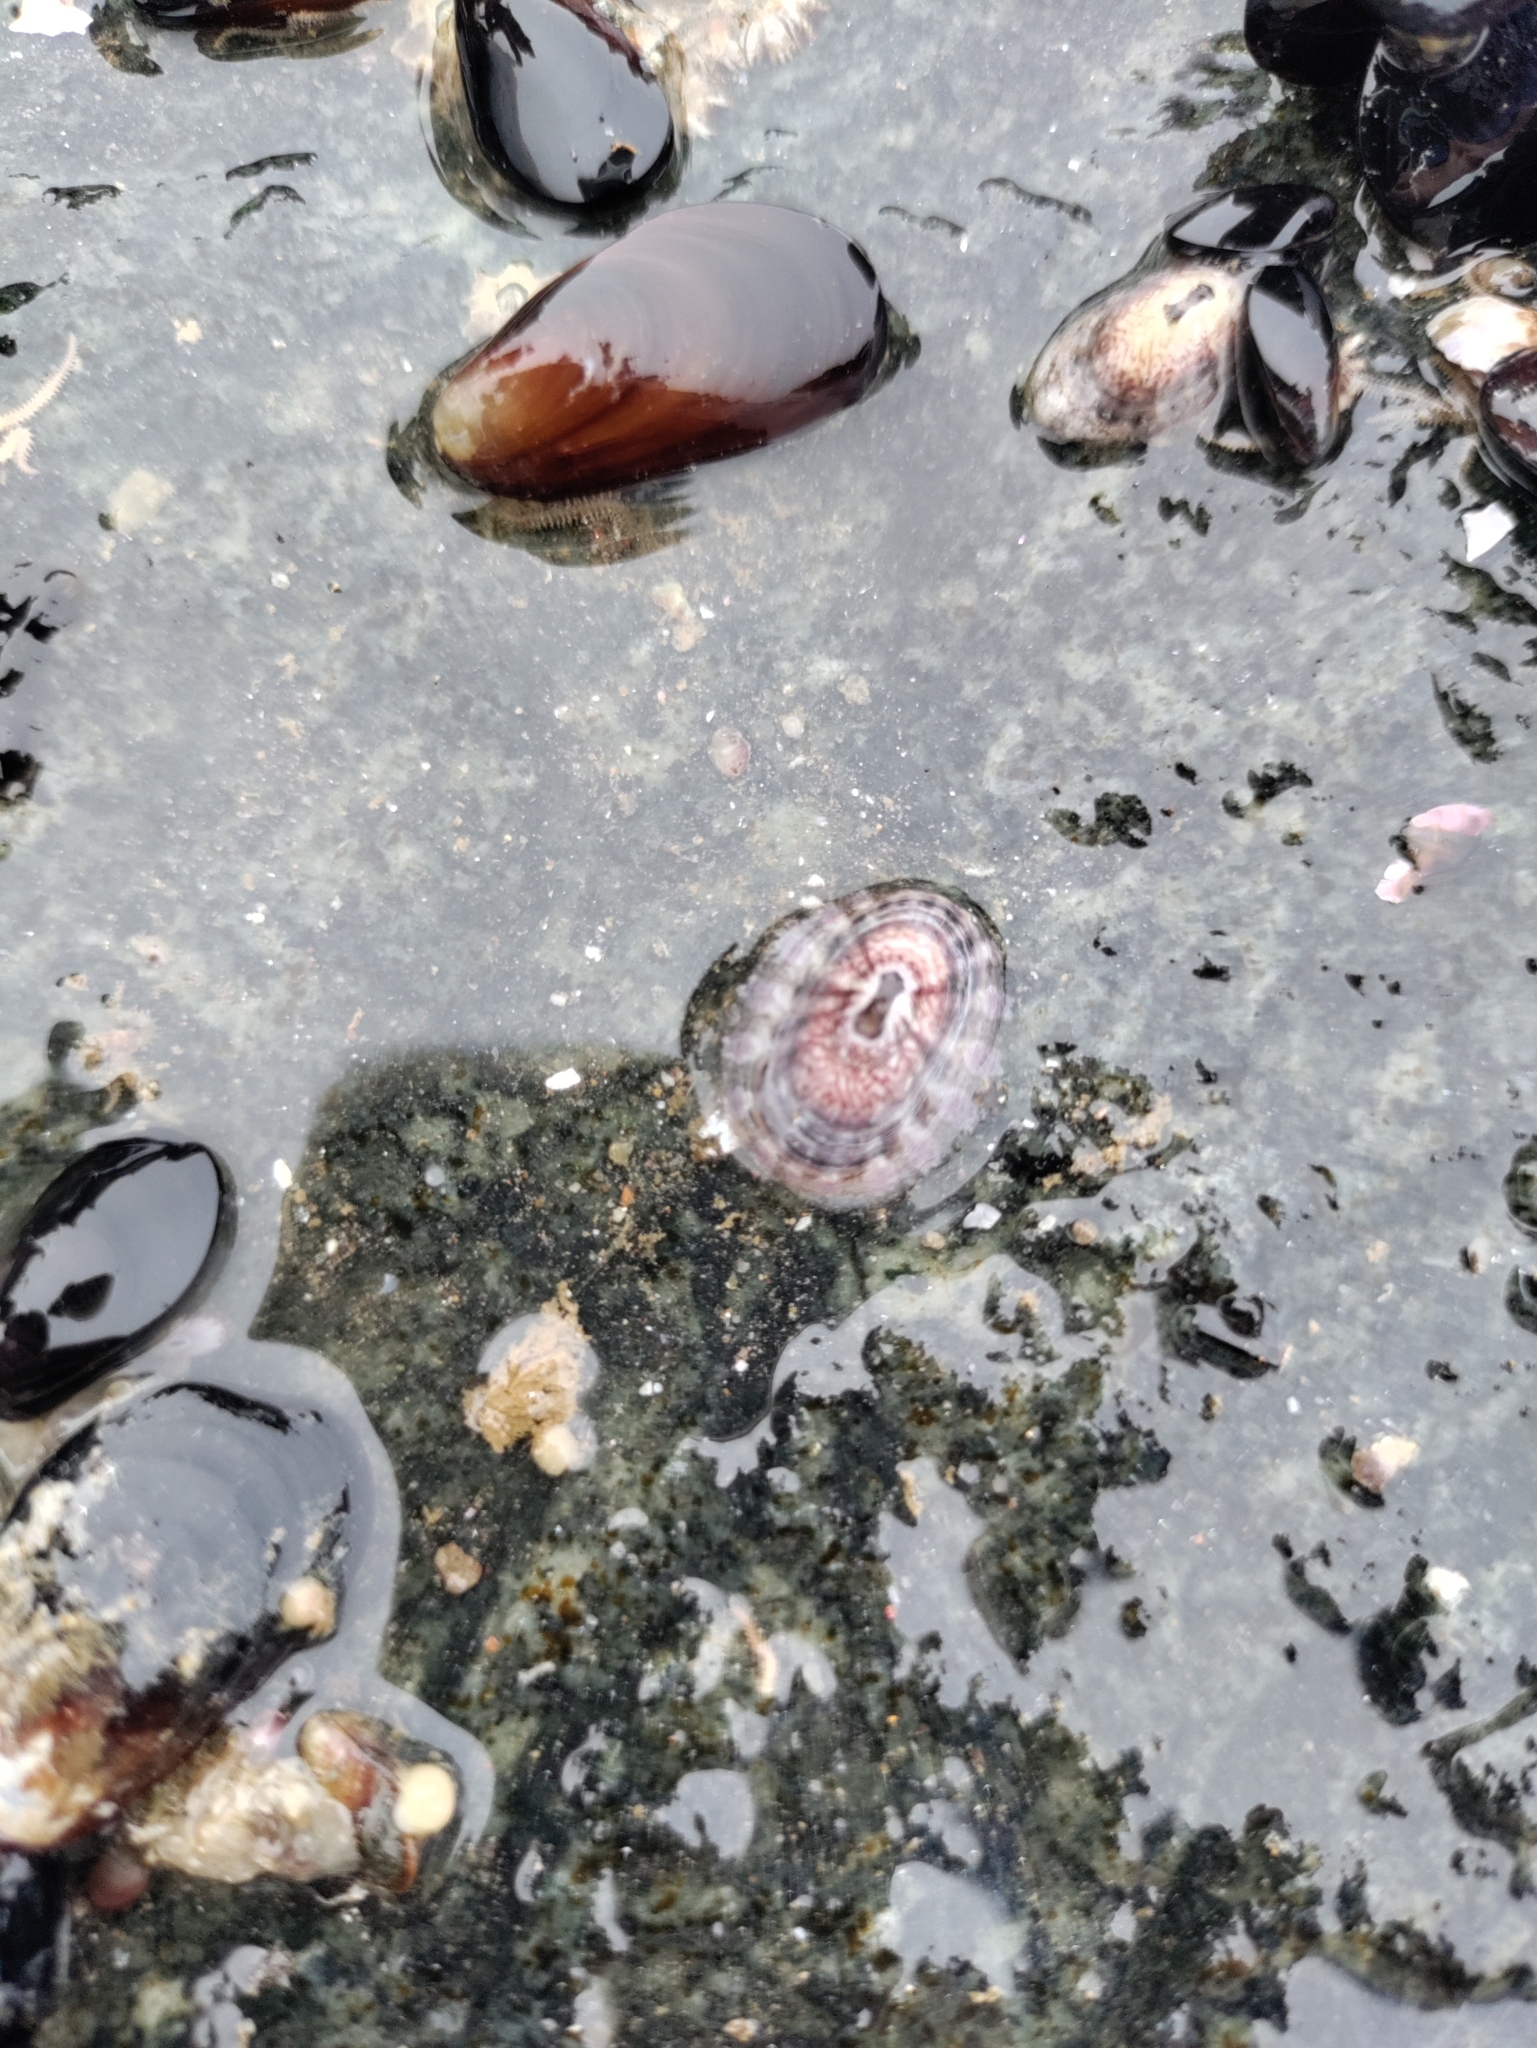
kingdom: Animalia
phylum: Mollusca
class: Gastropoda
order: Lepetellida
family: Fissurellidae
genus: Fissurella
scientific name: Fissurella limbata
